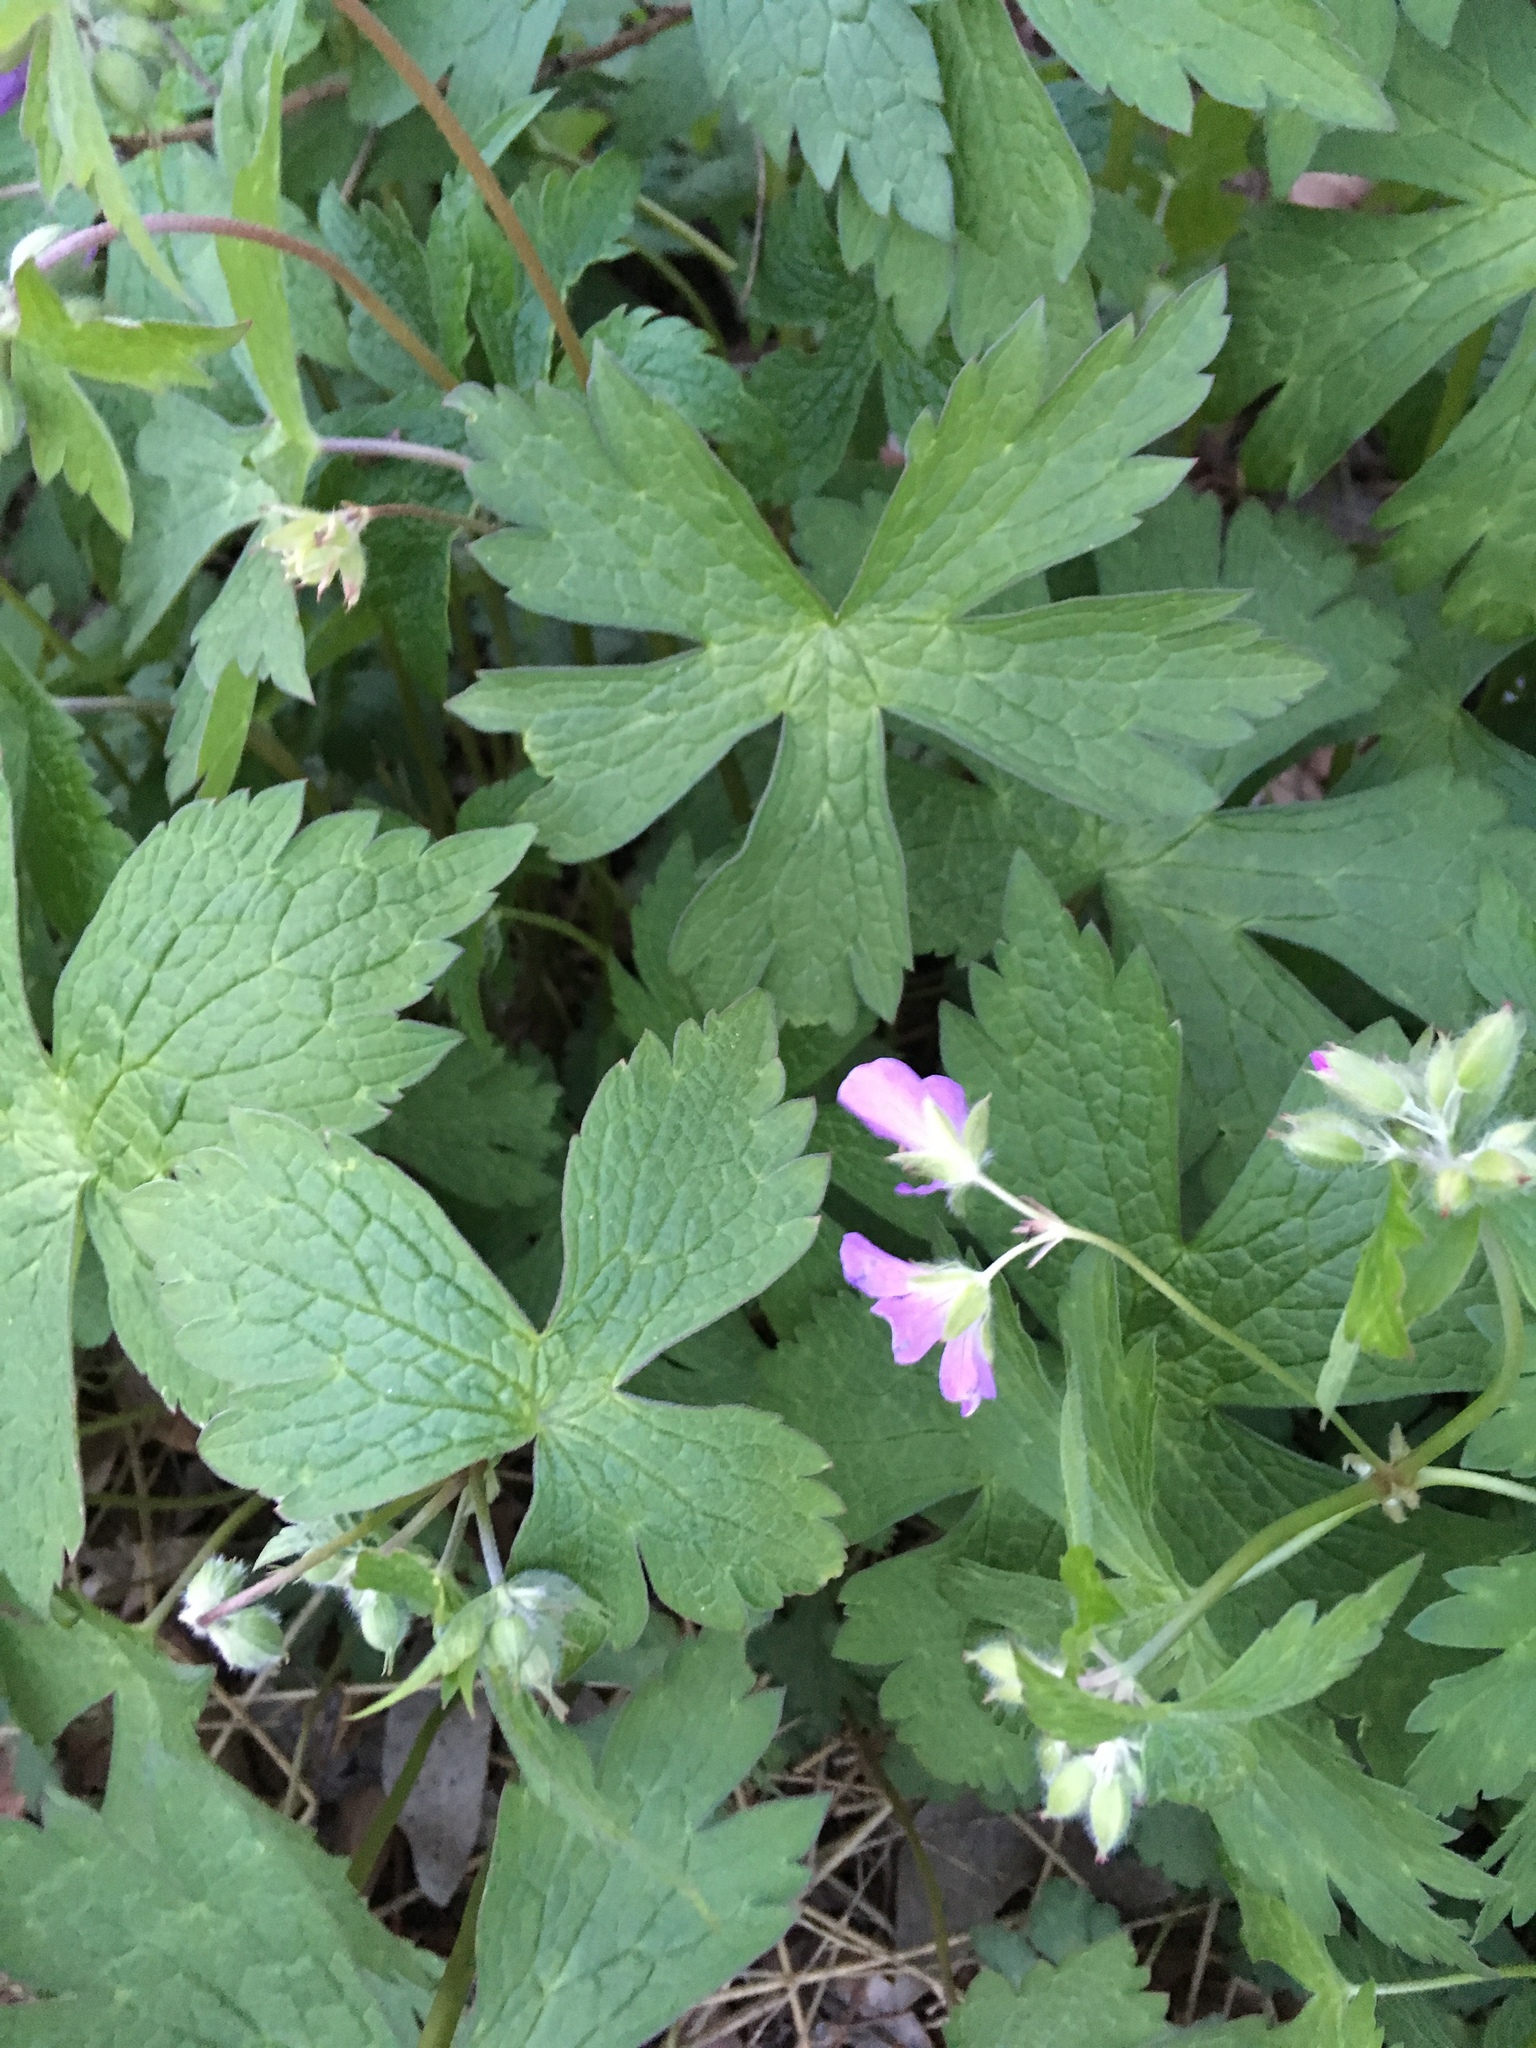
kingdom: Plantae
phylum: Tracheophyta
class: Magnoliopsida
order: Geraniales
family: Geraniaceae
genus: Geranium
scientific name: Geranium maculatum
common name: Spotted geranium
